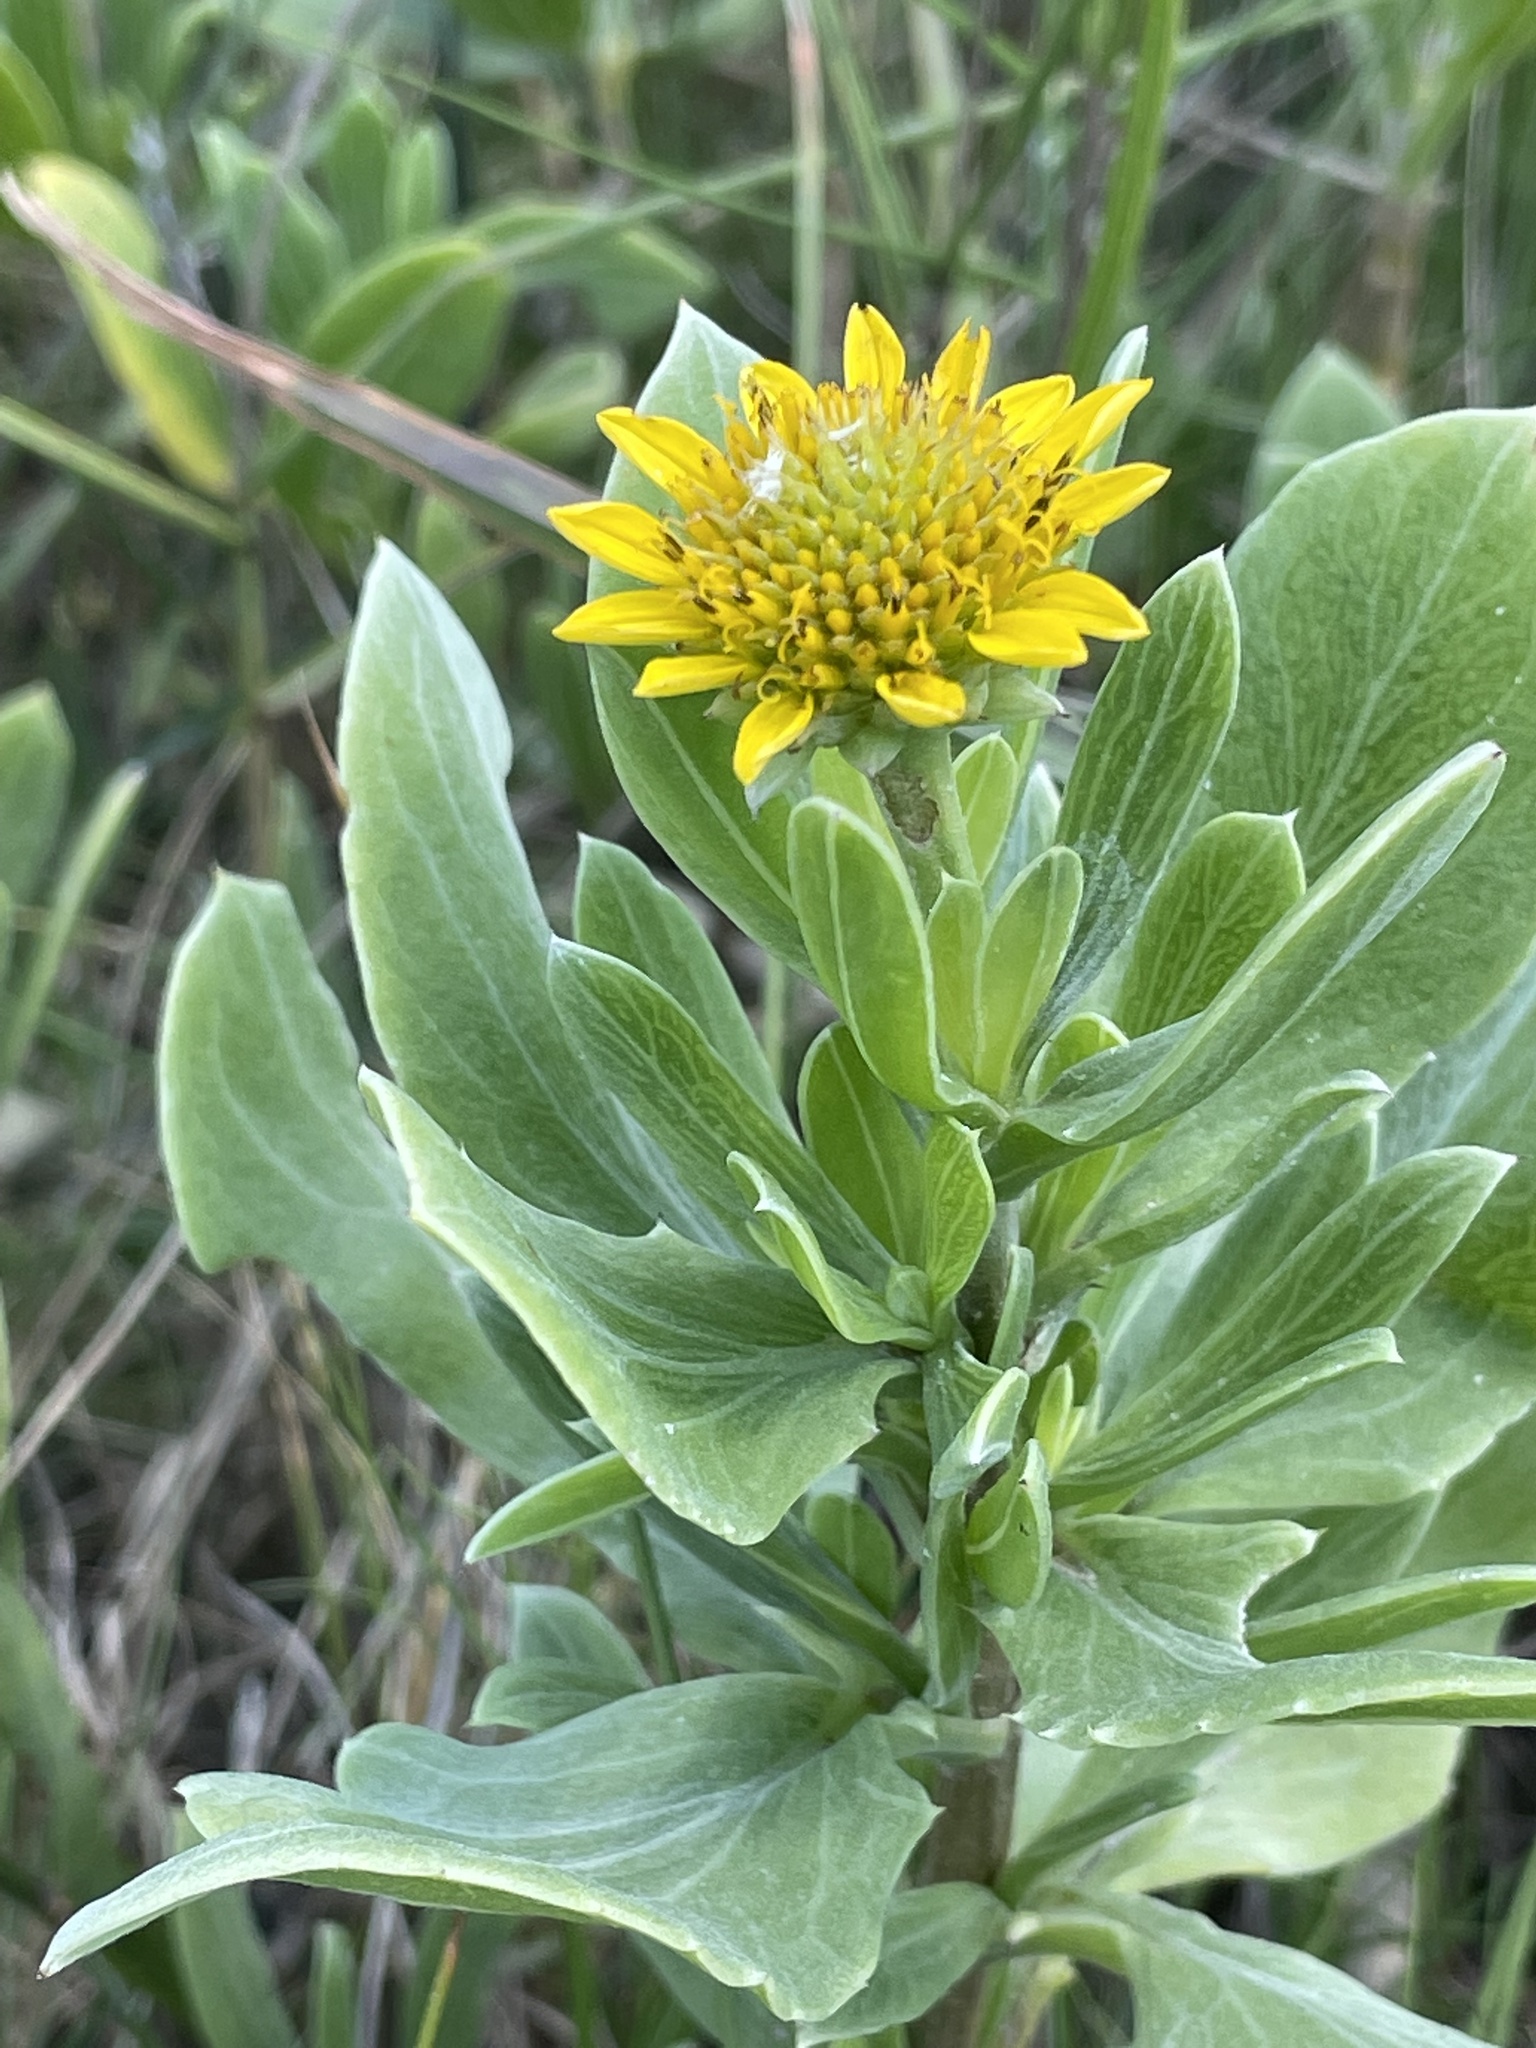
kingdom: Plantae
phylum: Tracheophyta
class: Magnoliopsida
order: Asterales
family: Asteraceae
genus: Borrichia
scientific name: Borrichia frutescens
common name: Sea oxeye
